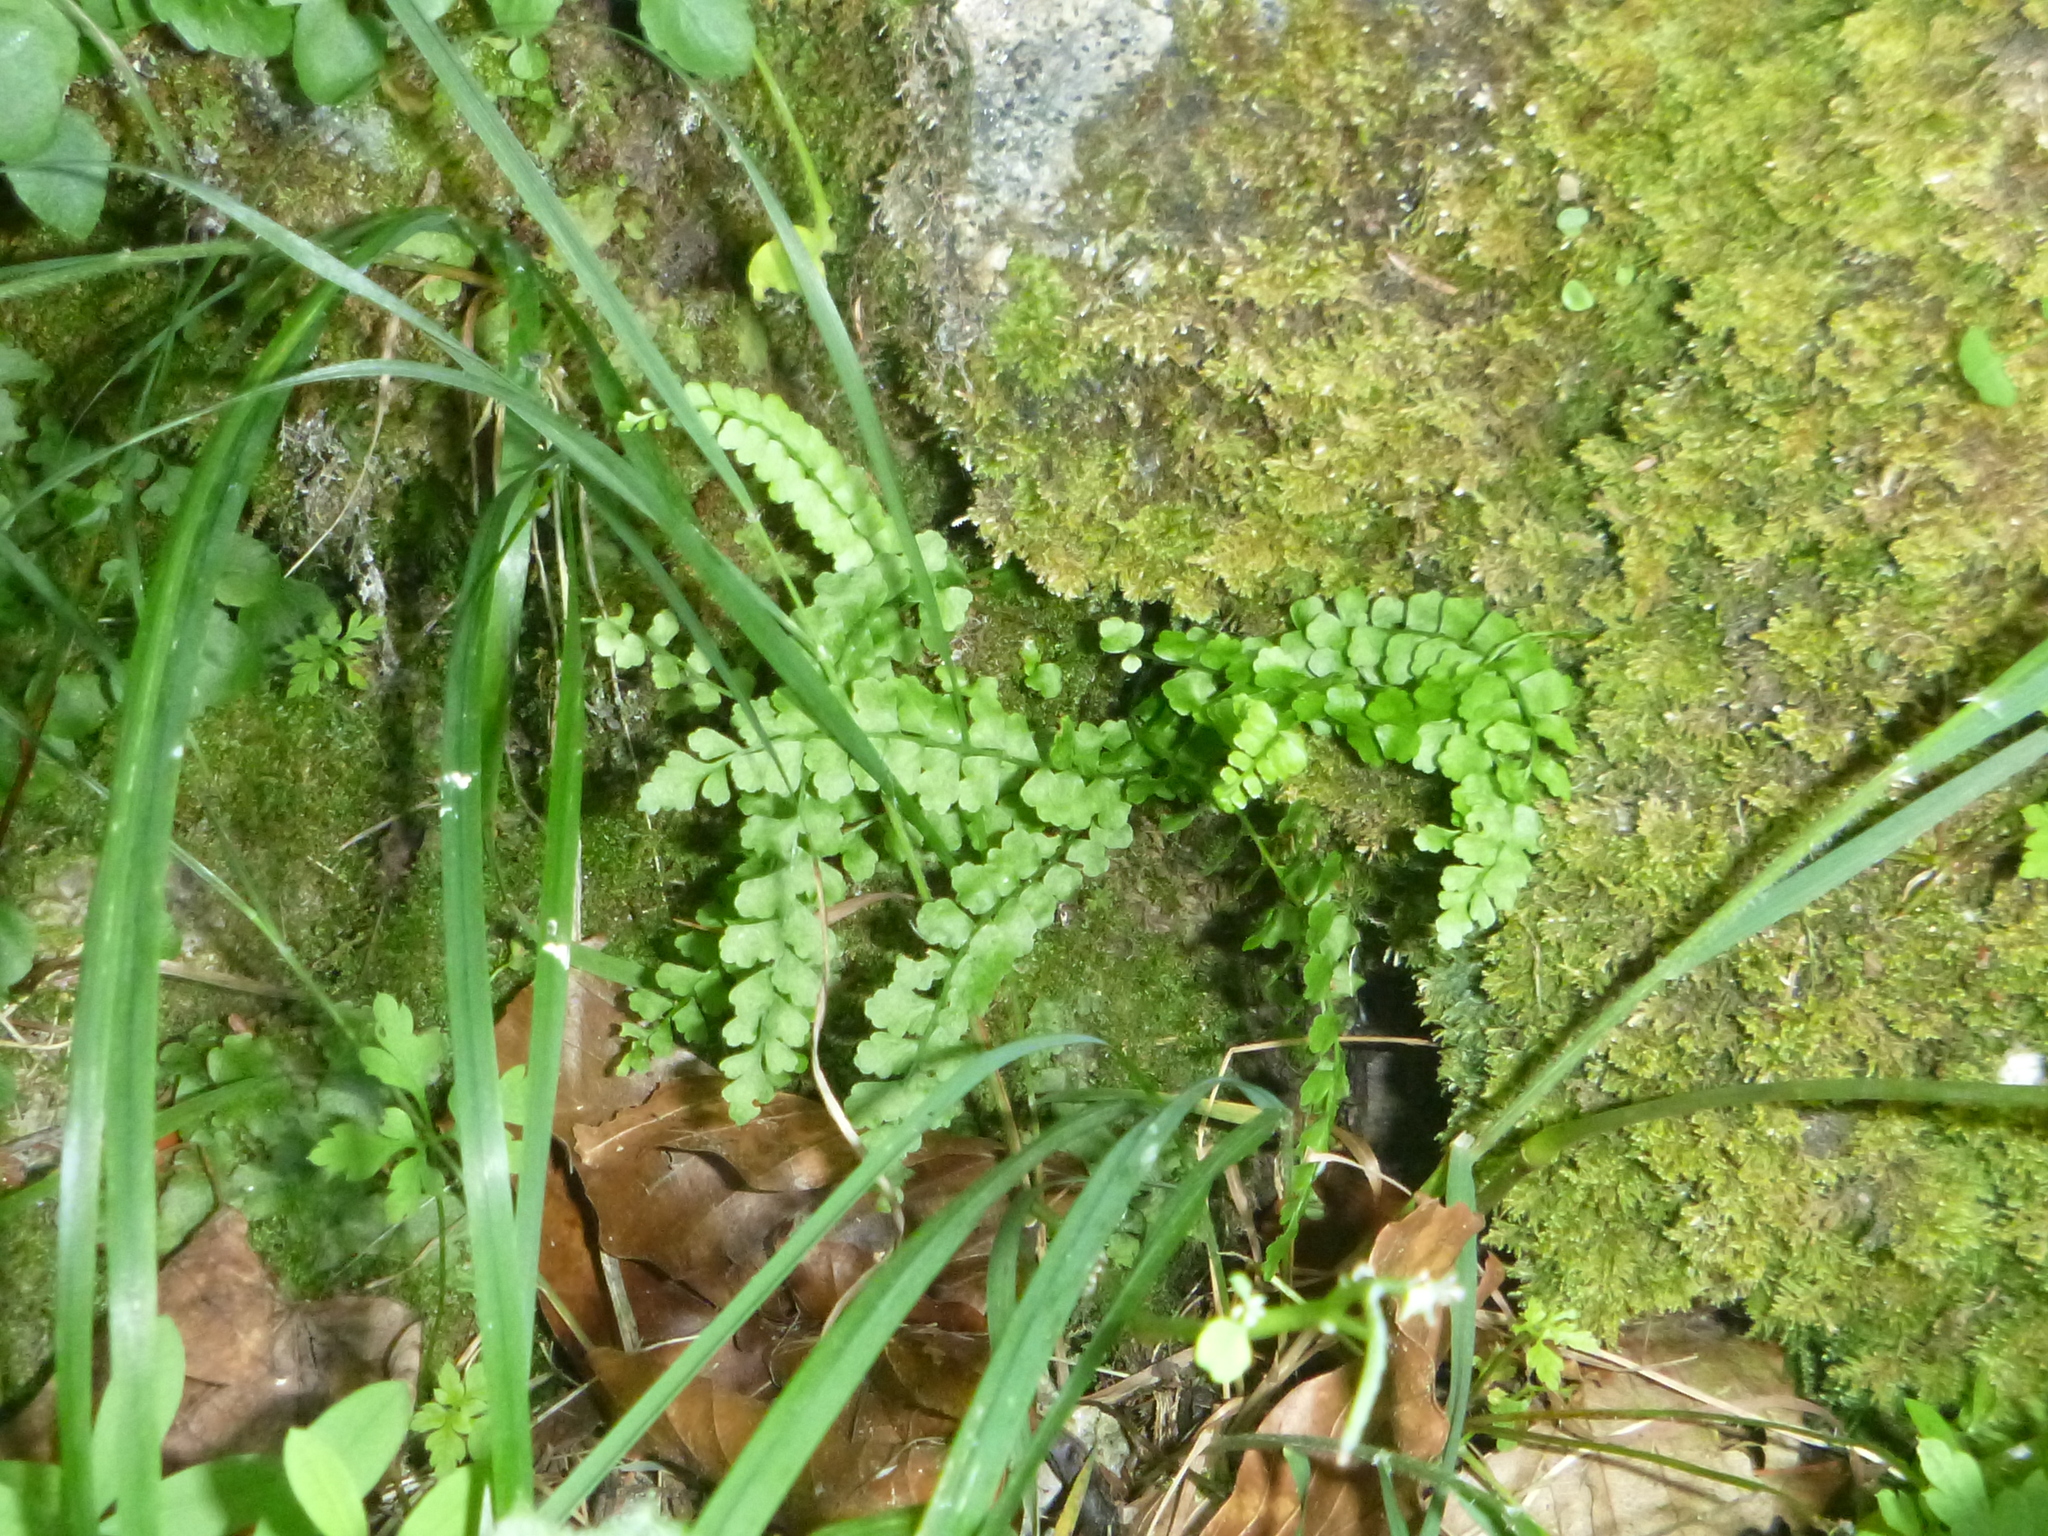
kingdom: Plantae
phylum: Tracheophyta
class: Polypodiopsida
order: Polypodiales
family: Aspleniaceae
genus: Asplenium
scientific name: Asplenium viride
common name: Green spleenwort
